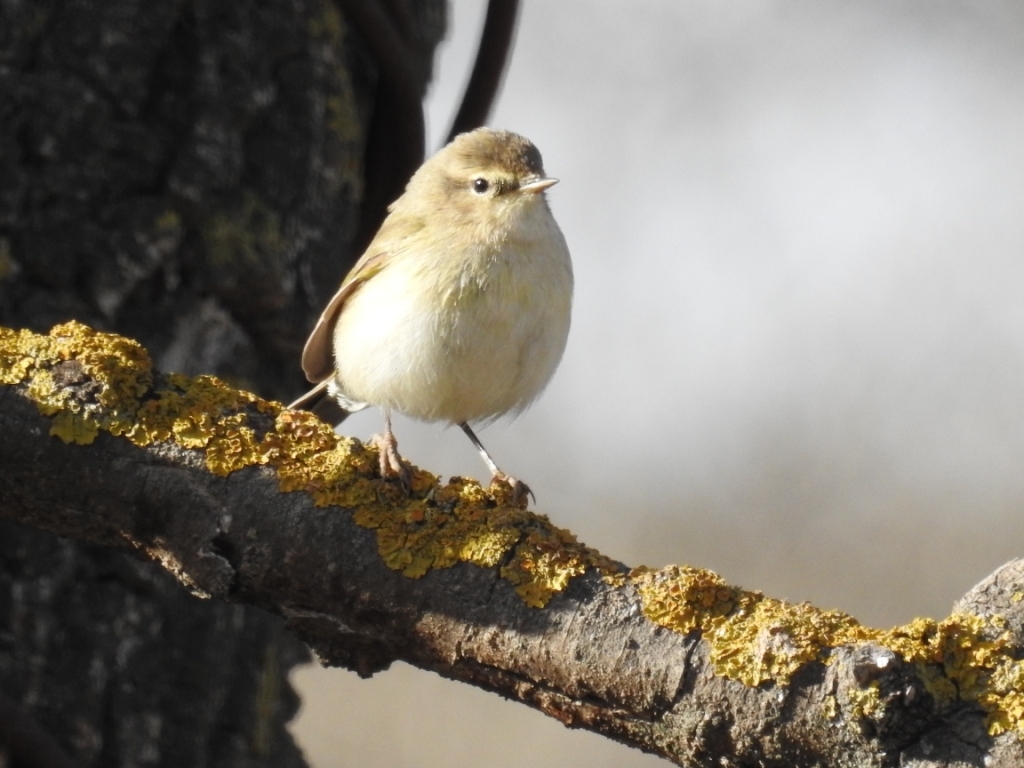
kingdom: Animalia
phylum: Chordata
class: Aves
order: Passeriformes
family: Phylloscopidae
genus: Phylloscopus
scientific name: Phylloscopus collybita
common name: Common chiffchaff
